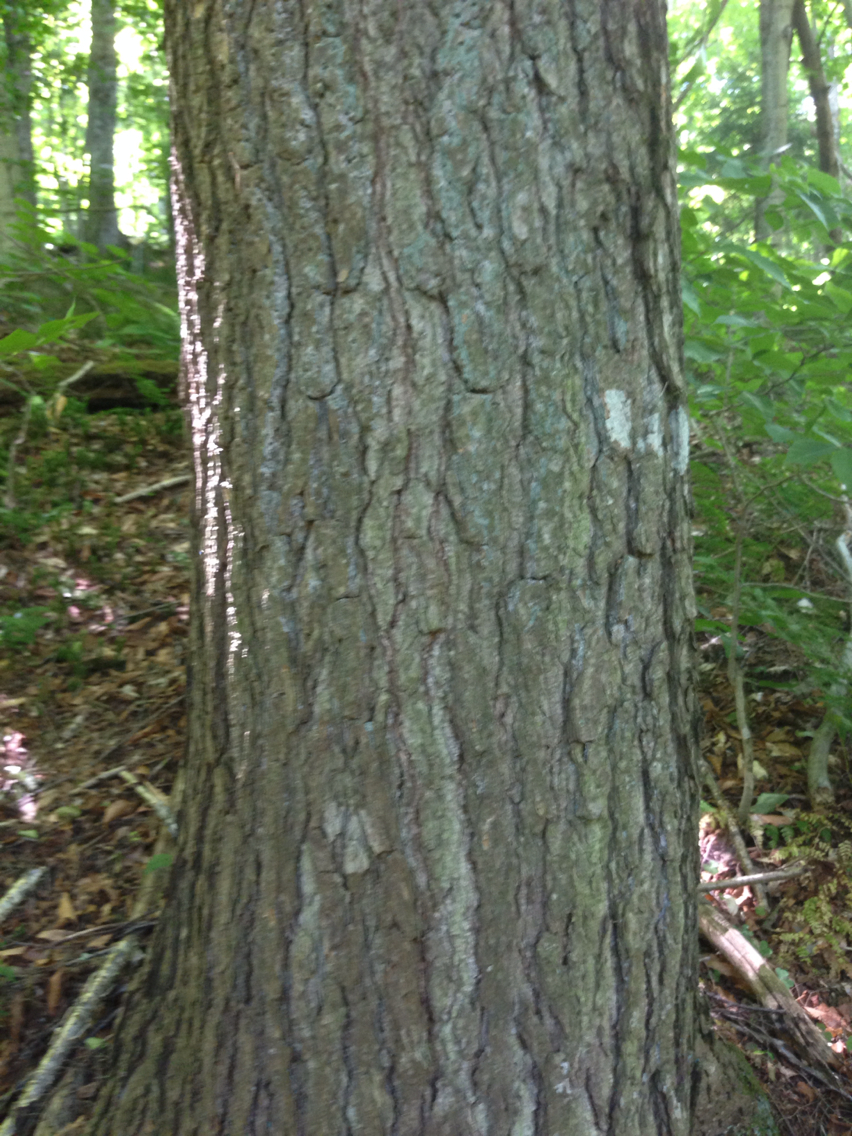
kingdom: Plantae
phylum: Tracheophyta
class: Pinopsida
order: Pinales
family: Pinaceae
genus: Tsuga
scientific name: Tsuga canadensis
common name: Eastern hemlock
